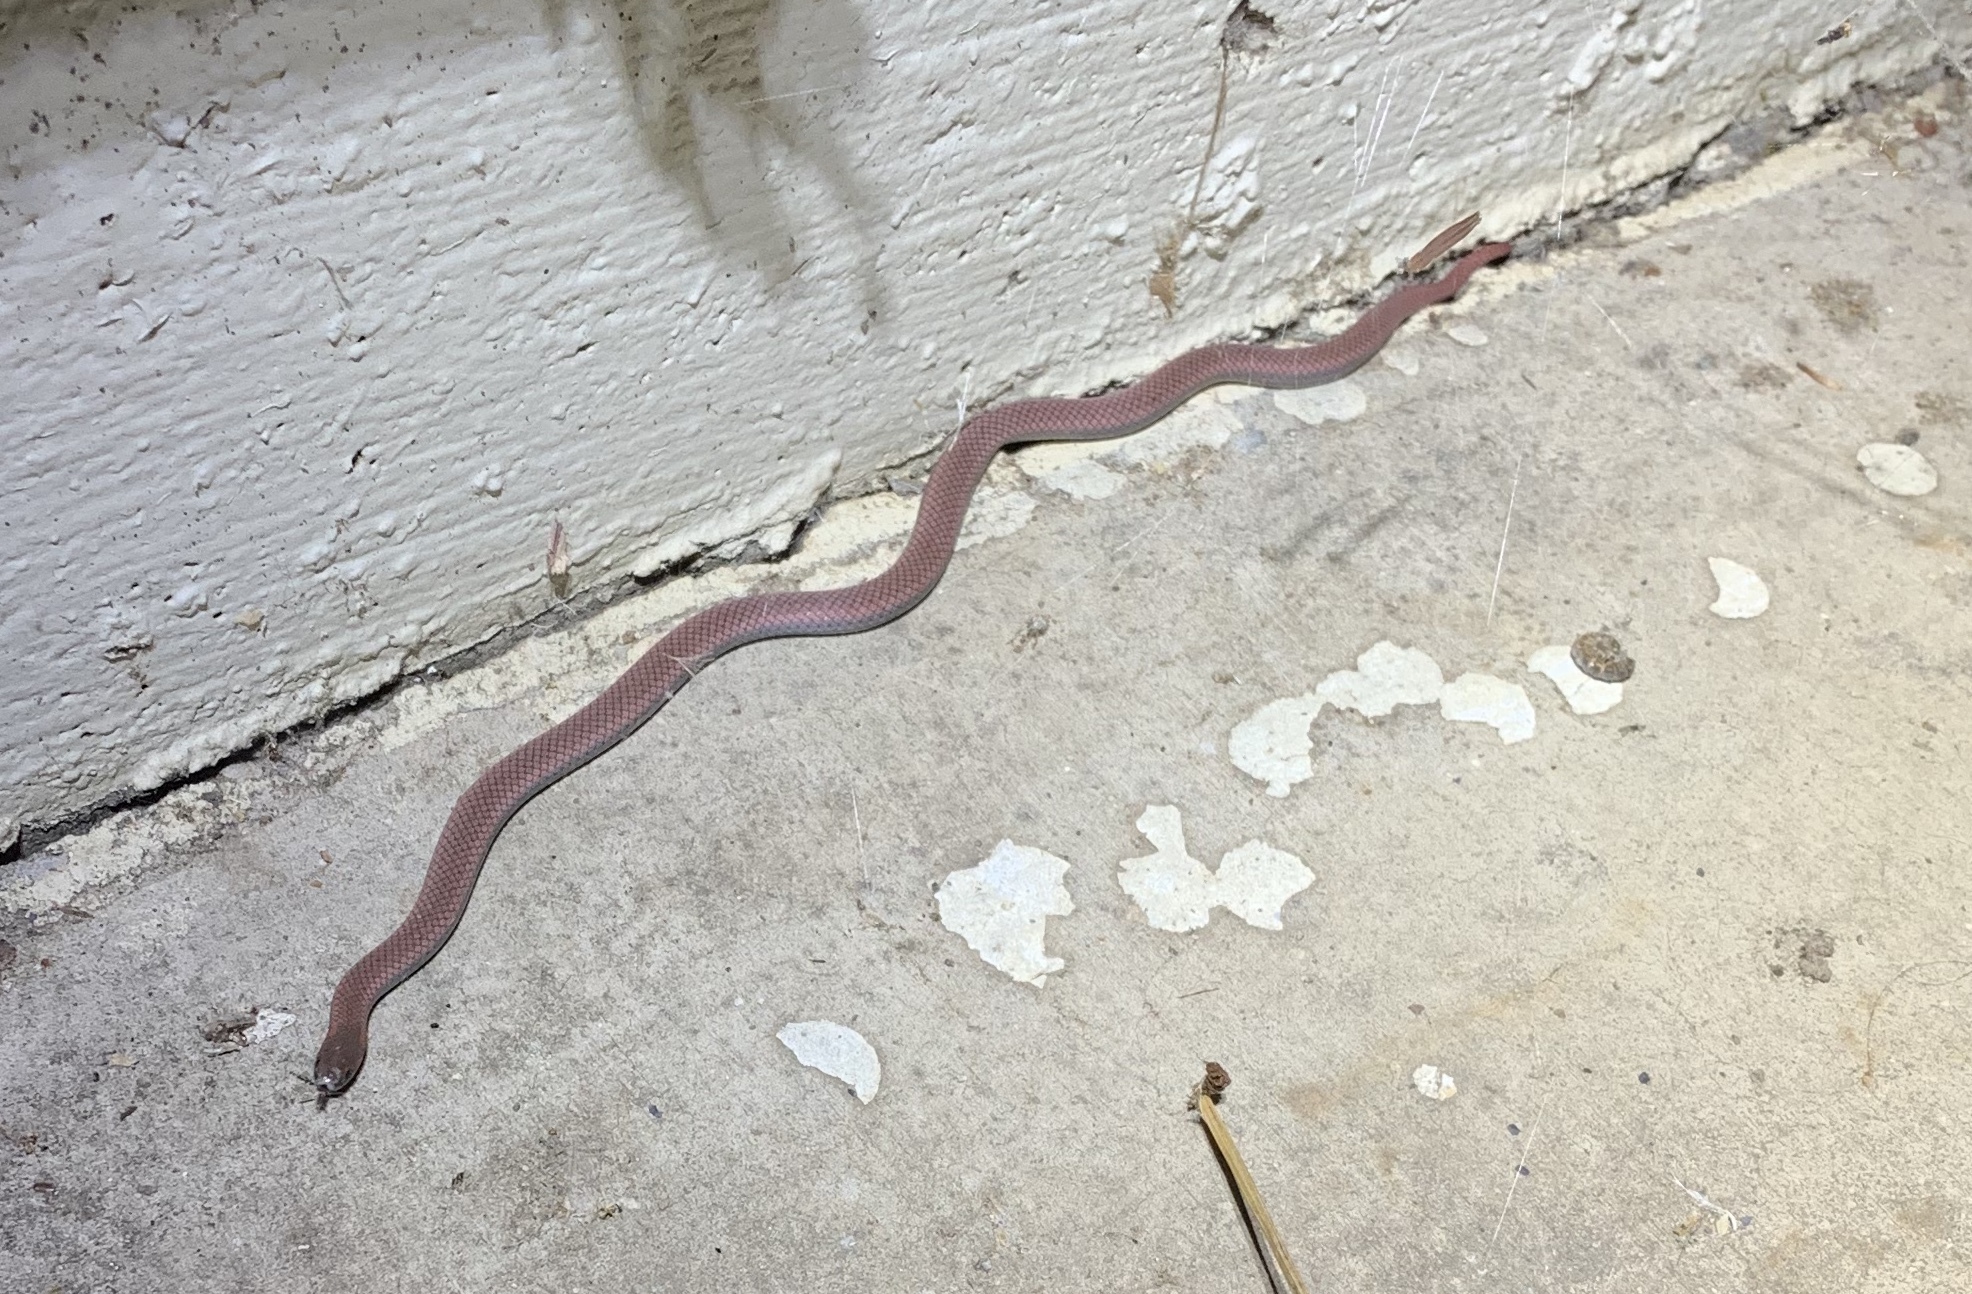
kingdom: Animalia
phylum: Chordata
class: Squamata
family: Colubridae
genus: Contia
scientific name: Contia tenuis
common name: Sharptail snake
